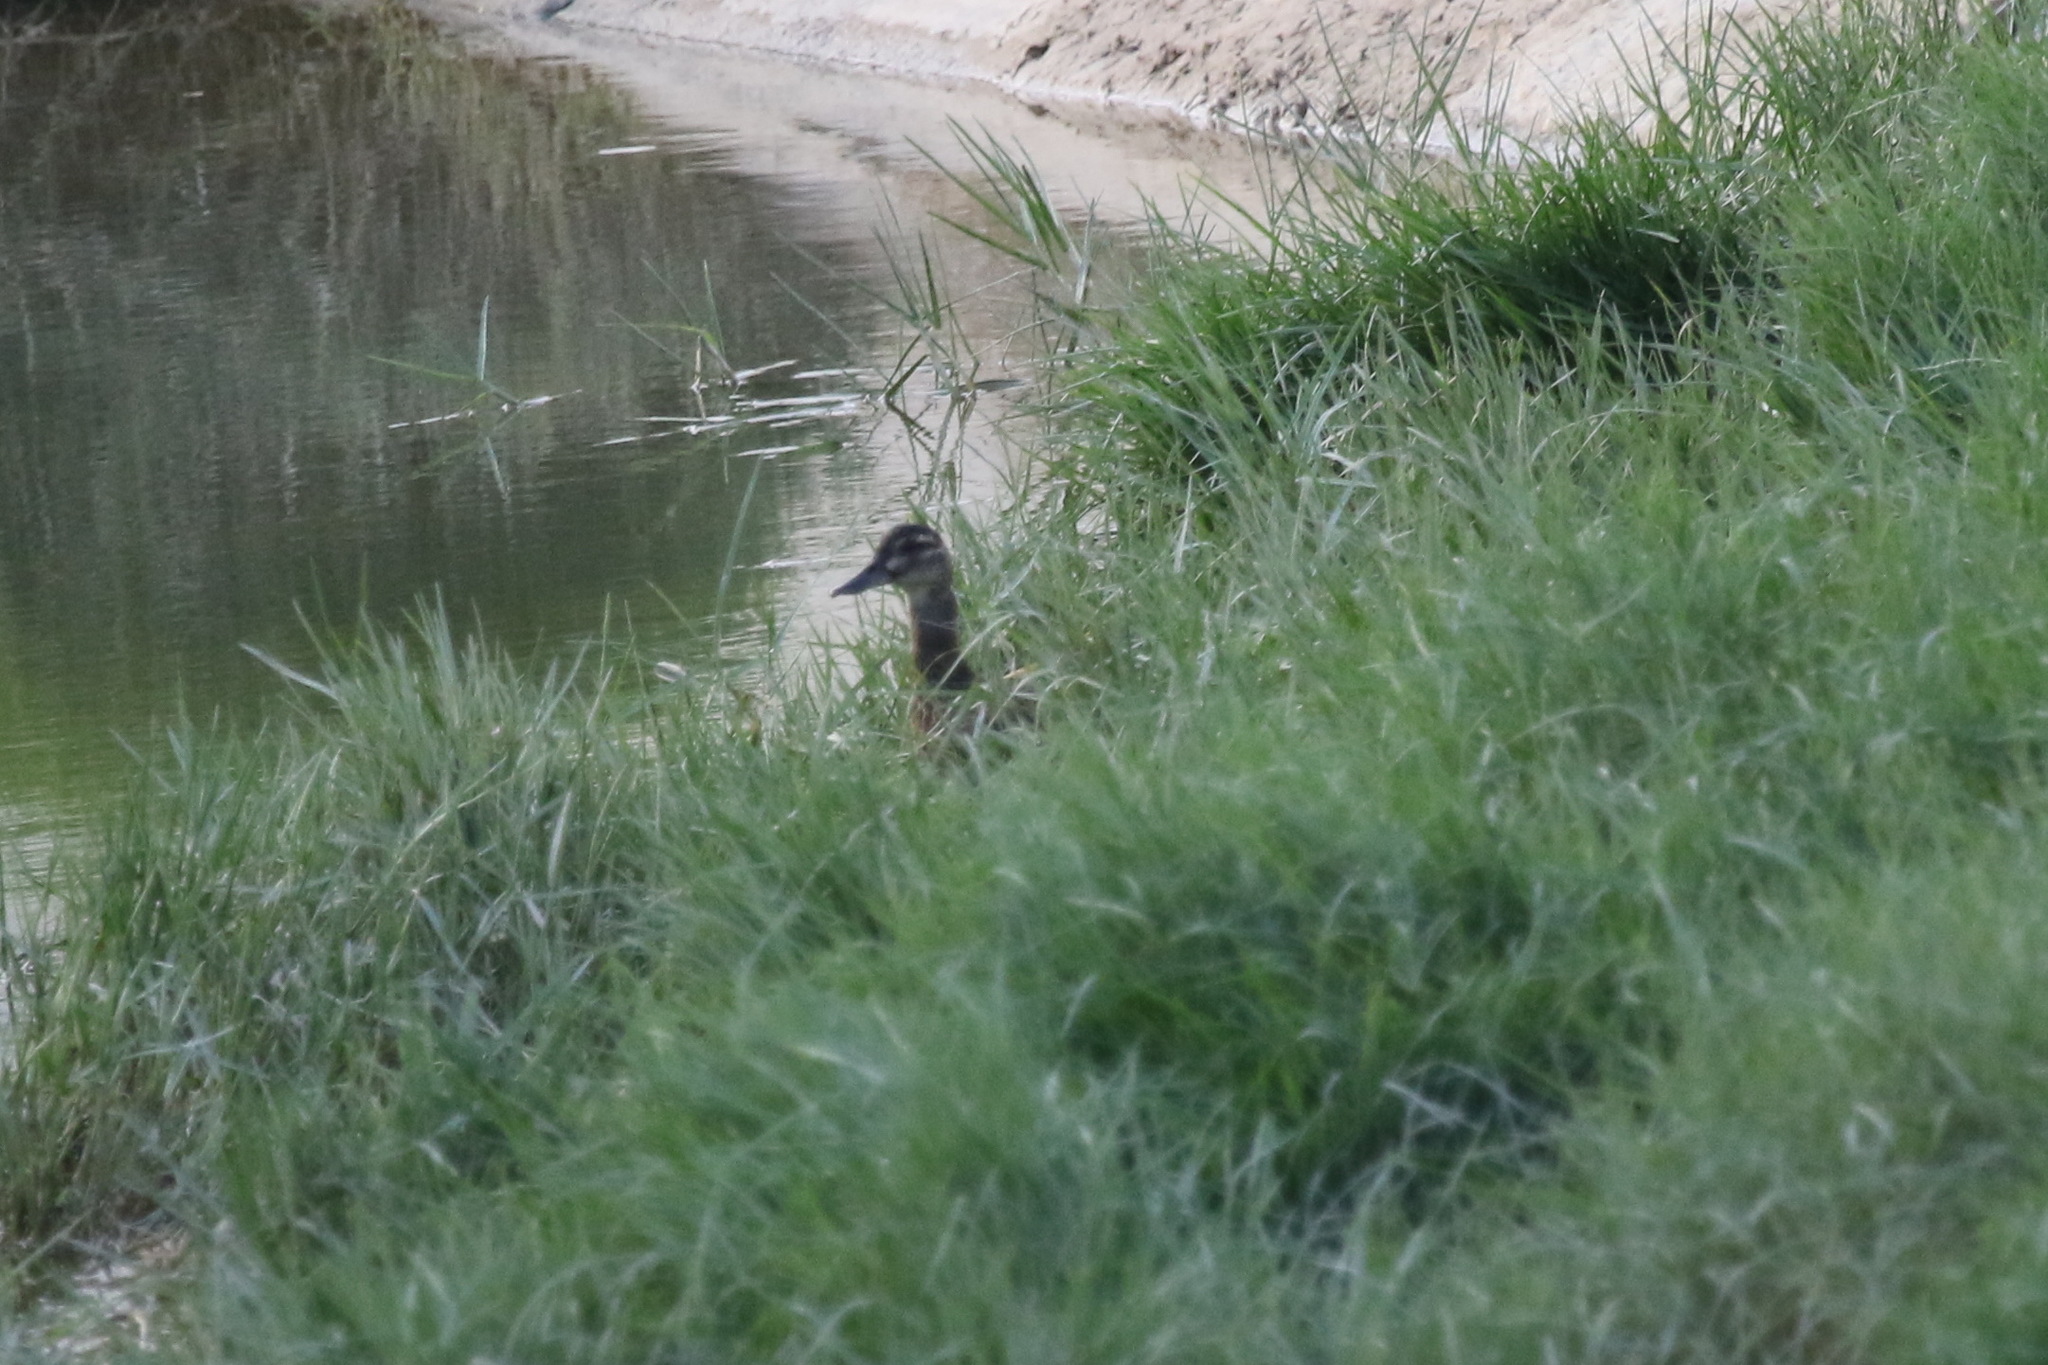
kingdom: Animalia
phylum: Chordata
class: Aves
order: Anseriformes
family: Anatidae
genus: Spatula
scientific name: Spatula querquedula
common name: Garganey
